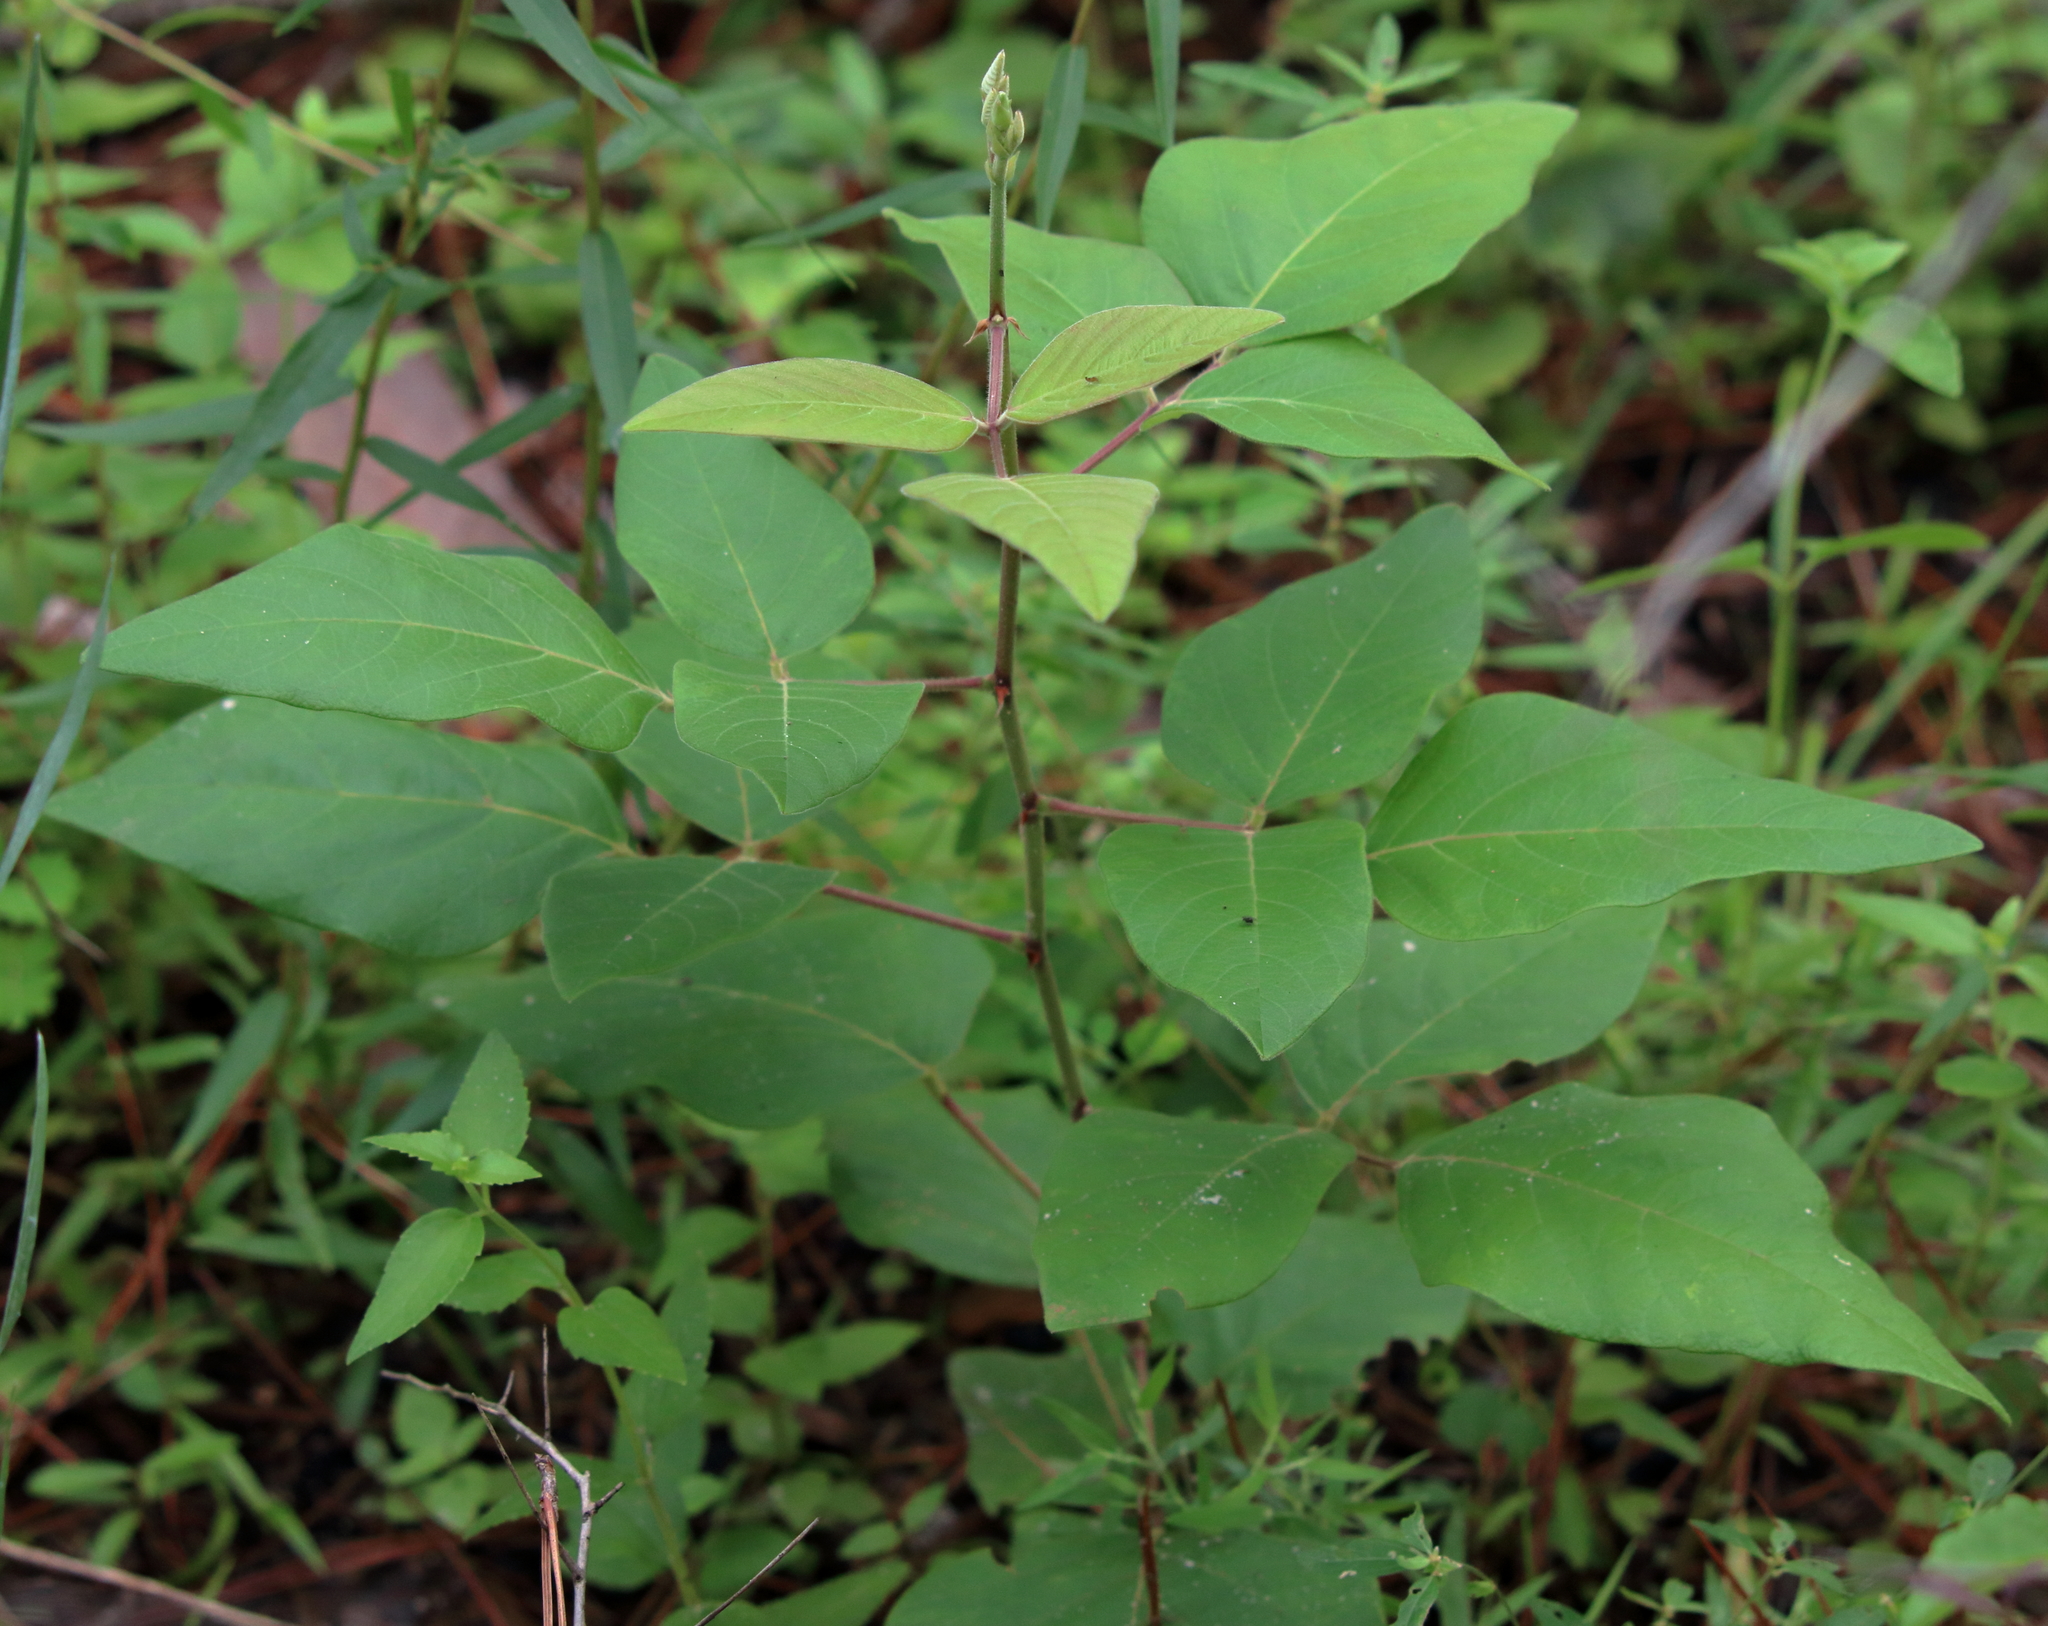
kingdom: Plantae
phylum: Tracheophyta
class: Magnoliopsida
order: Sapindales
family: Anacardiaceae
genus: Toxicodendron
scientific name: Toxicodendron radicans
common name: Poison ivy
